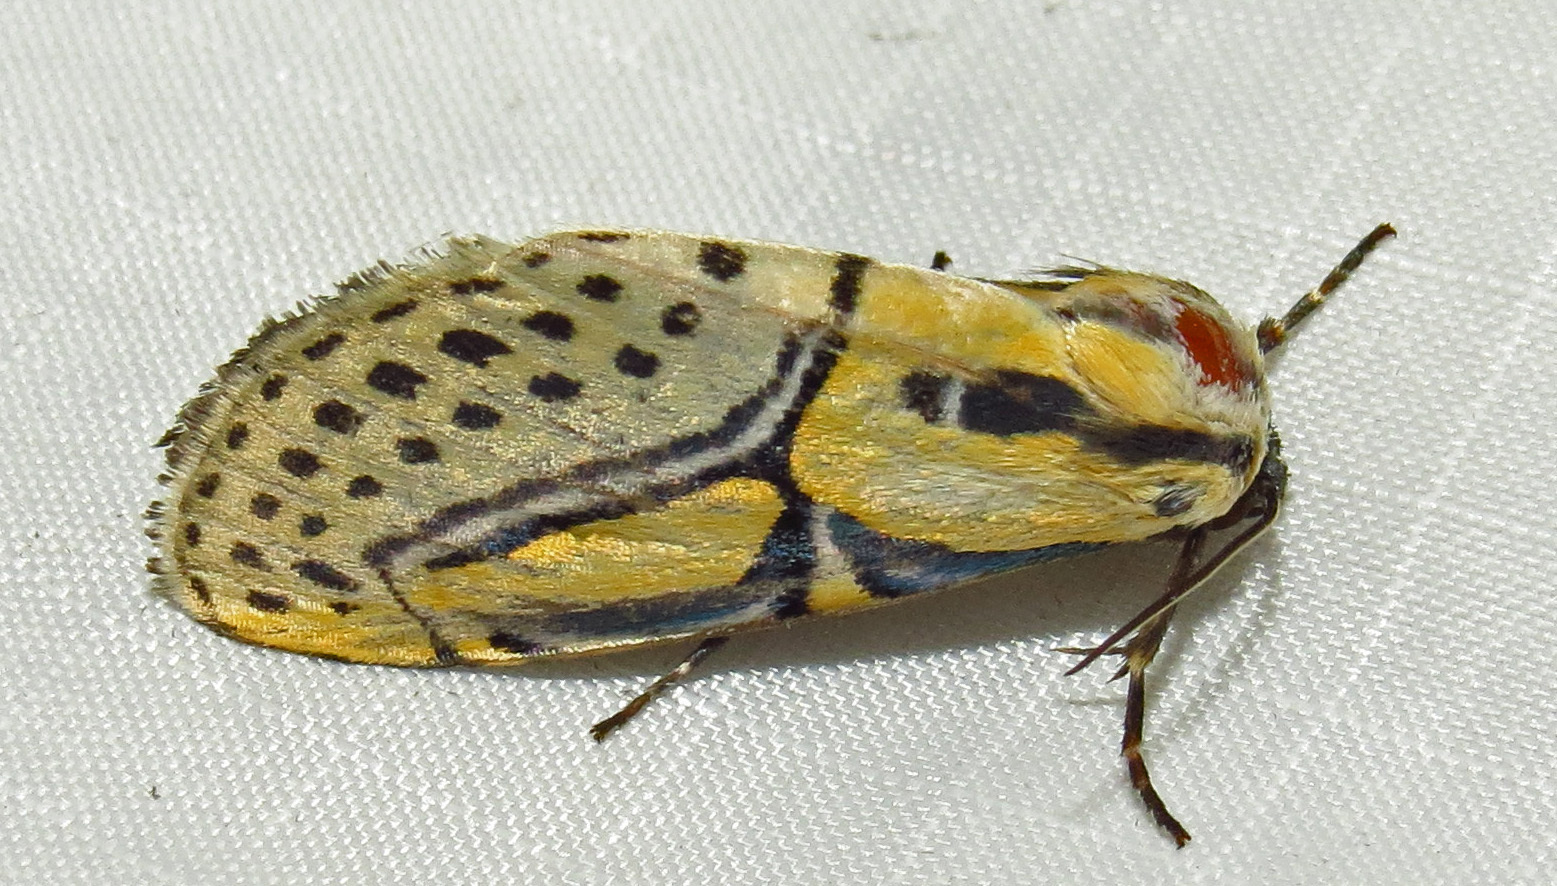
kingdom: Animalia
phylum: Arthropoda
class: Insecta
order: Lepidoptera
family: Erebidae
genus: Diphthera
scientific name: Diphthera festiva
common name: Hieroglyphic moth
